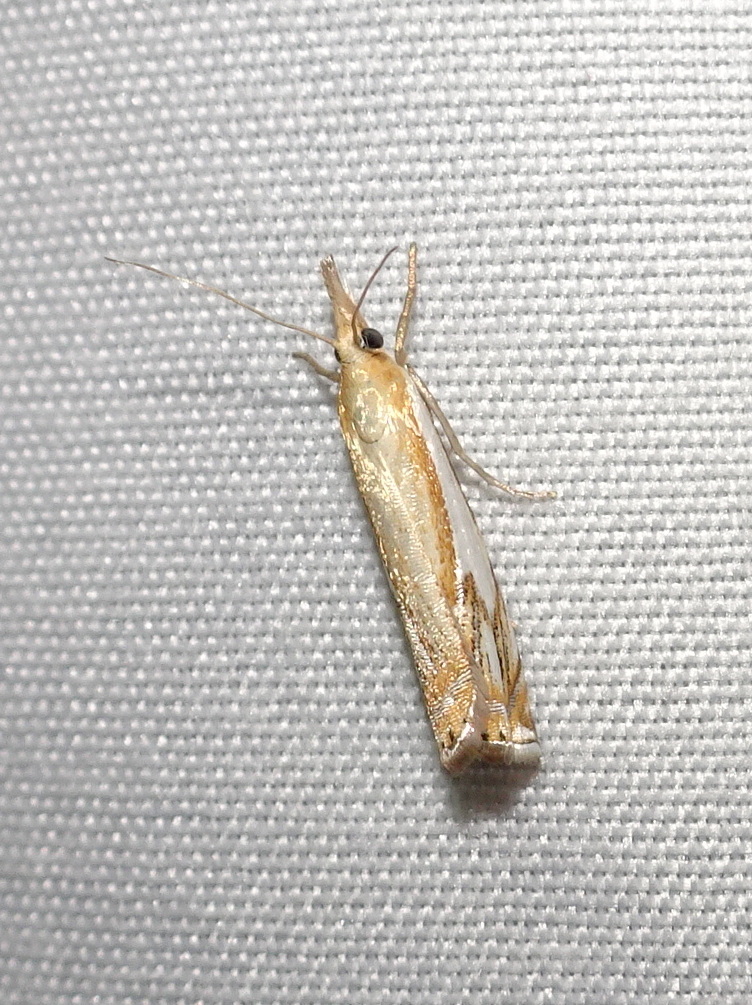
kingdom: Animalia
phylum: Arthropoda
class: Insecta
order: Lepidoptera
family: Crambidae
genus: Crambus
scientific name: Crambus agitatellus
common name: Double-banded grass-veneer
